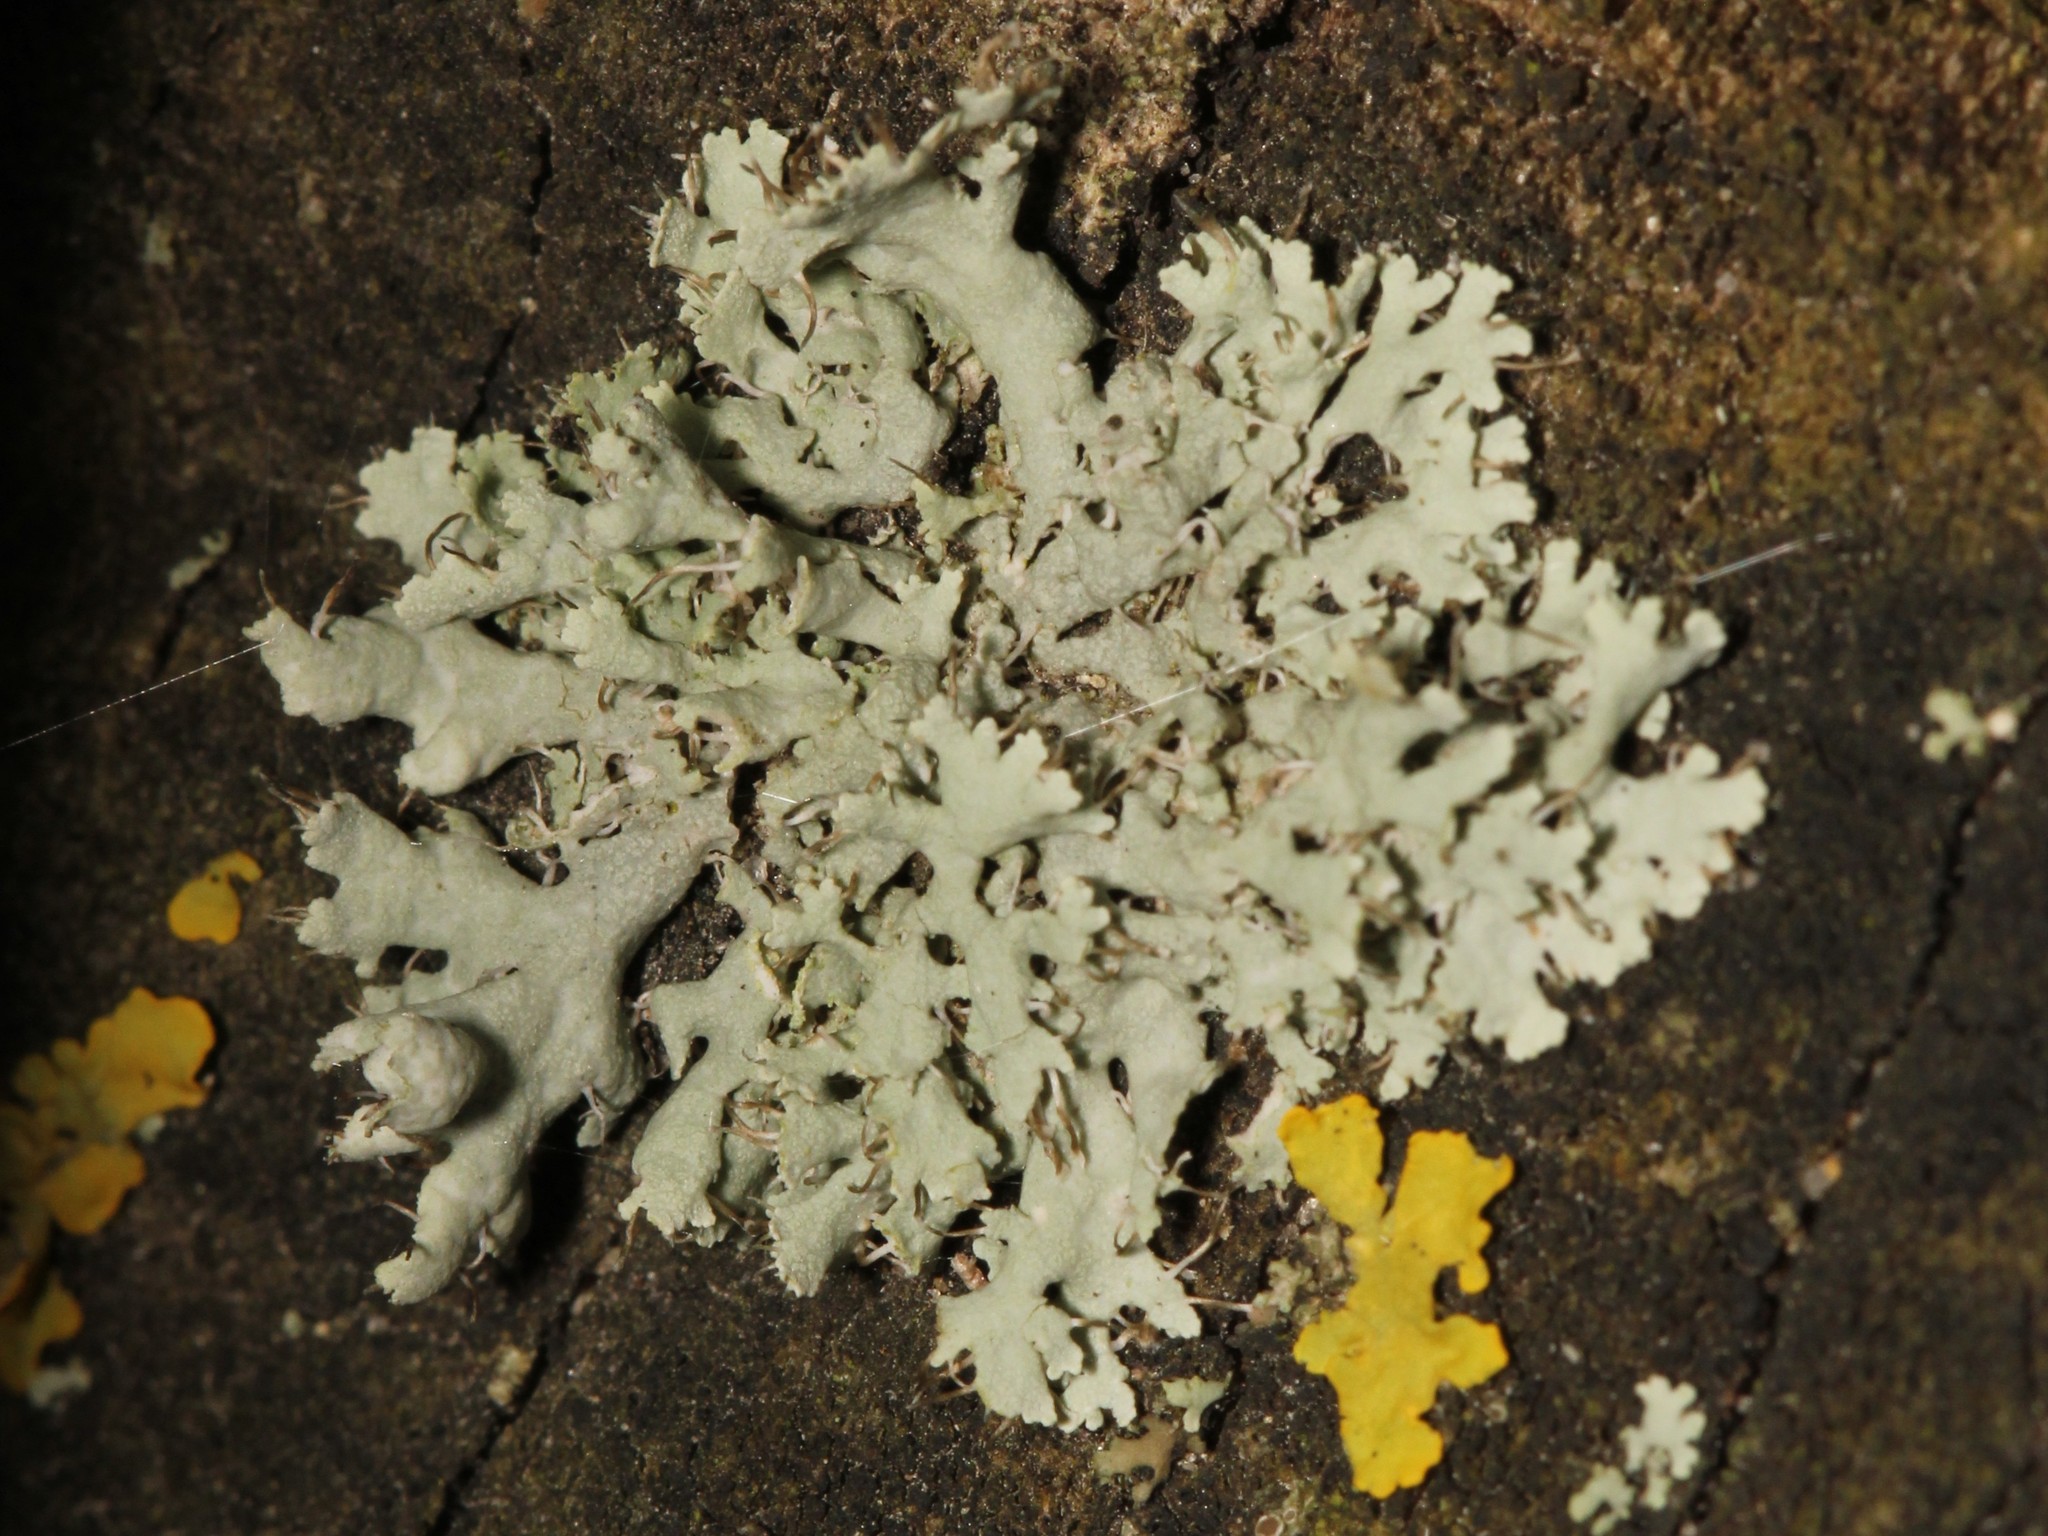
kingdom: Fungi
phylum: Ascomycota
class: Lecanoromycetes
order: Caliciales
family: Physciaceae
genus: Physcia
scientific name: Physcia adscendens
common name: Hooded rosette lichen
